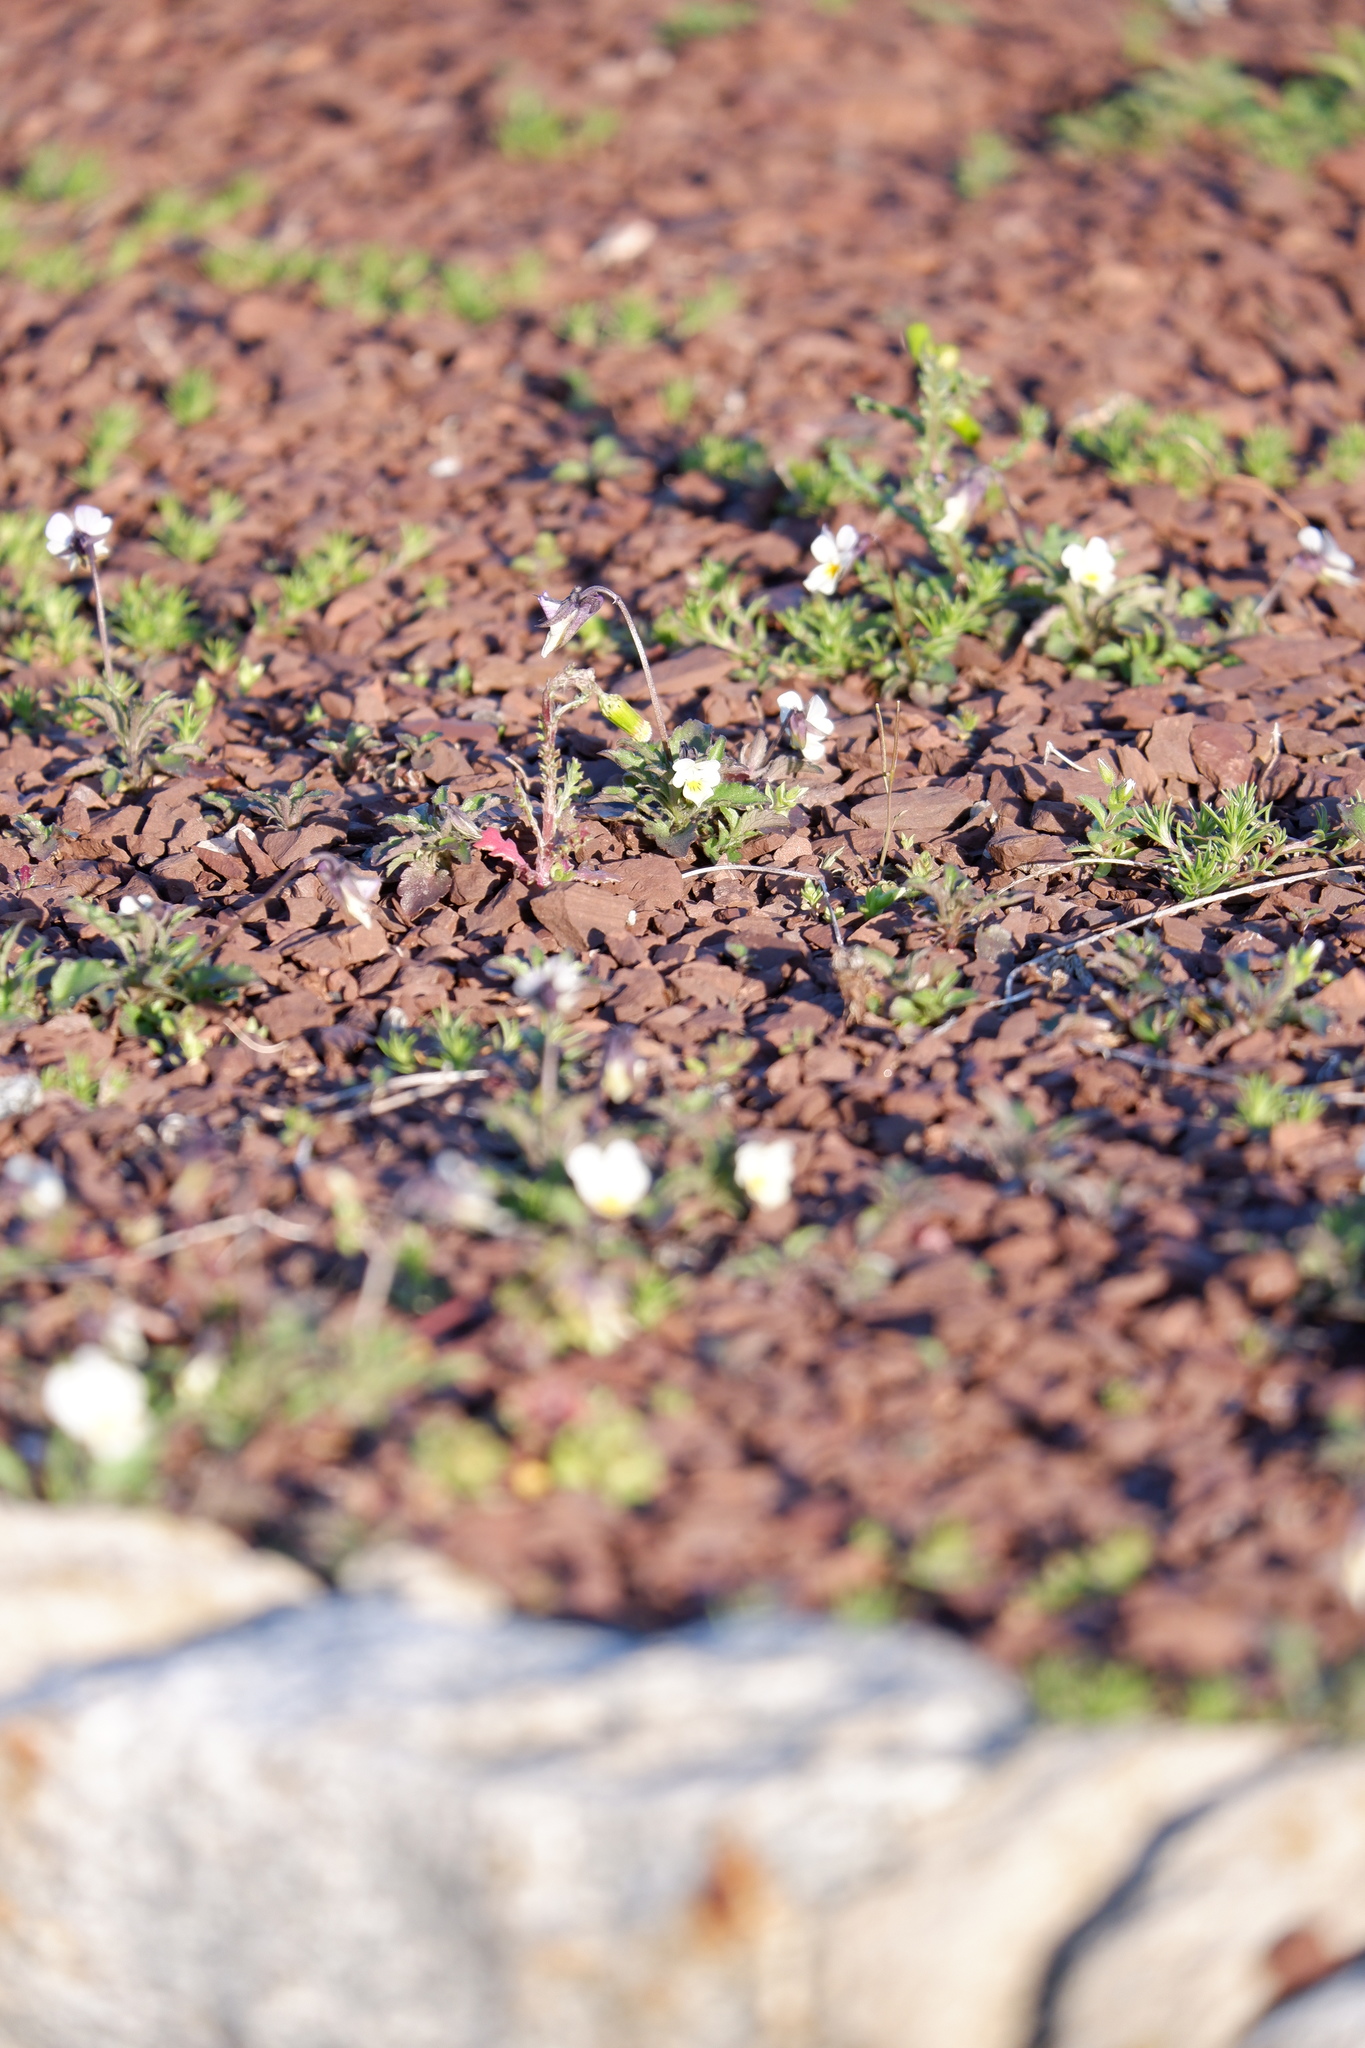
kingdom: Plantae
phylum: Tracheophyta
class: Magnoliopsida
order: Malpighiales
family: Violaceae
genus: Viola
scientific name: Viola arvensis
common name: Field pansy
